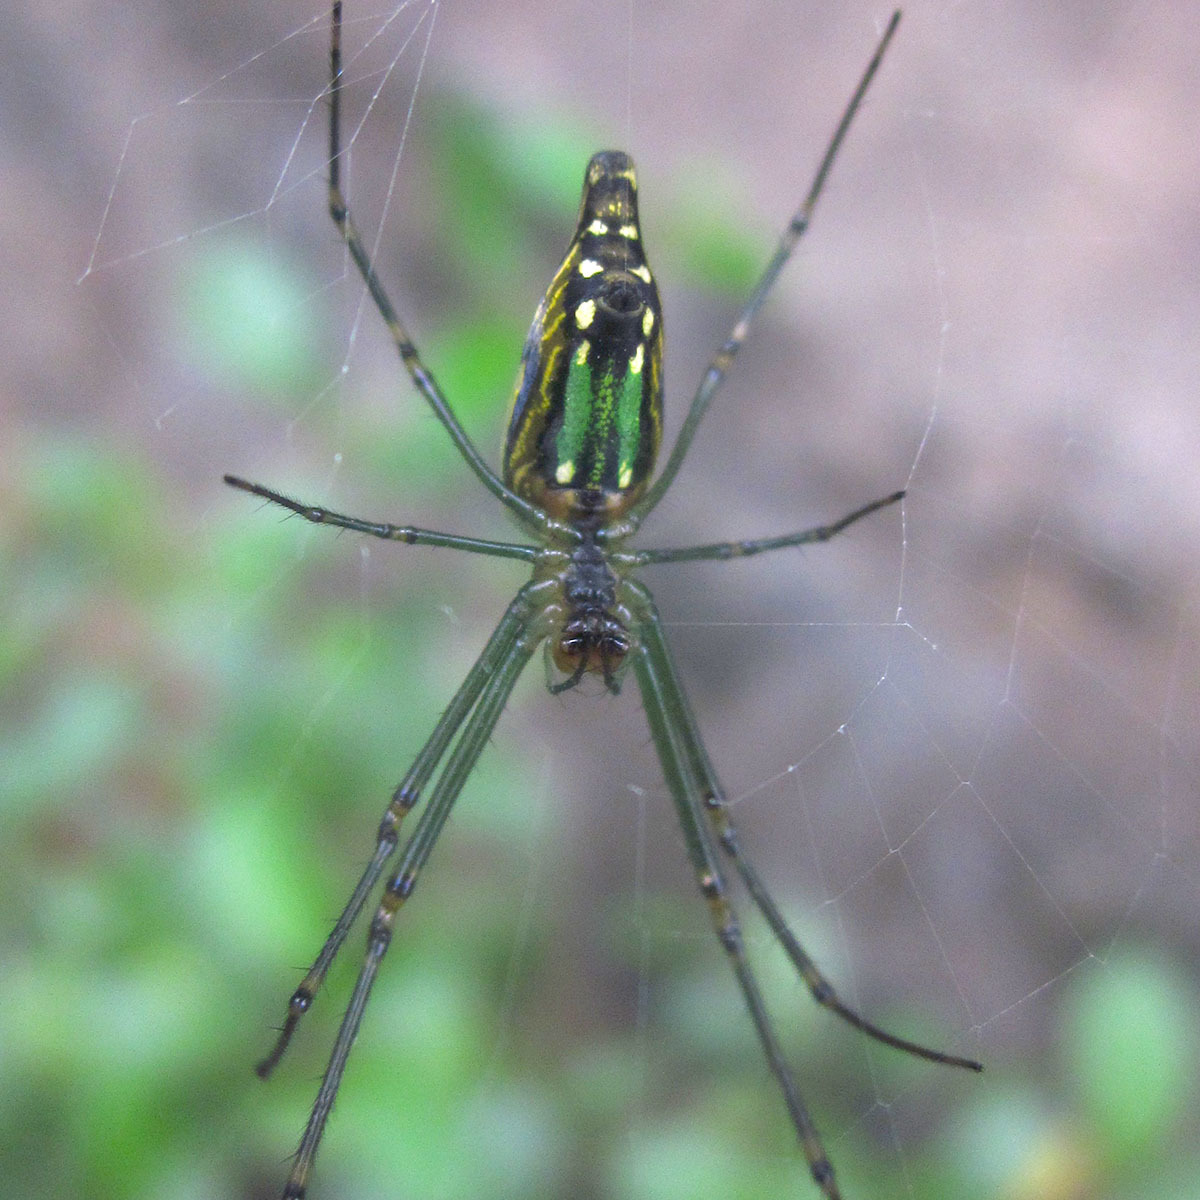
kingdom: Animalia
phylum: Arthropoda
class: Arachnida
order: Araneae
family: Tetragnathidae
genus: Leucauge
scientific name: Leucauge decorata
